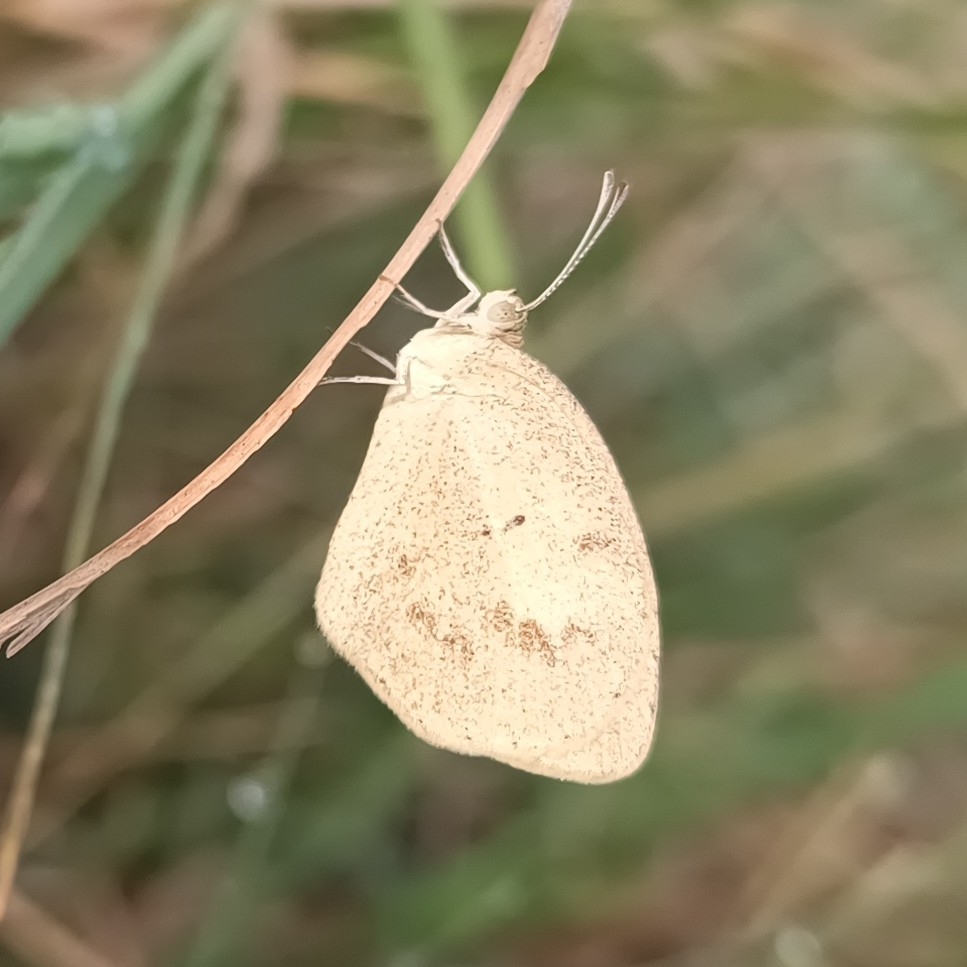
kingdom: Animalia
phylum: Arthropoda
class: Insecta
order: Lepidoptera
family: Pieridae
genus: Eurema
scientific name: Eurema daira
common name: Barred sulphur
